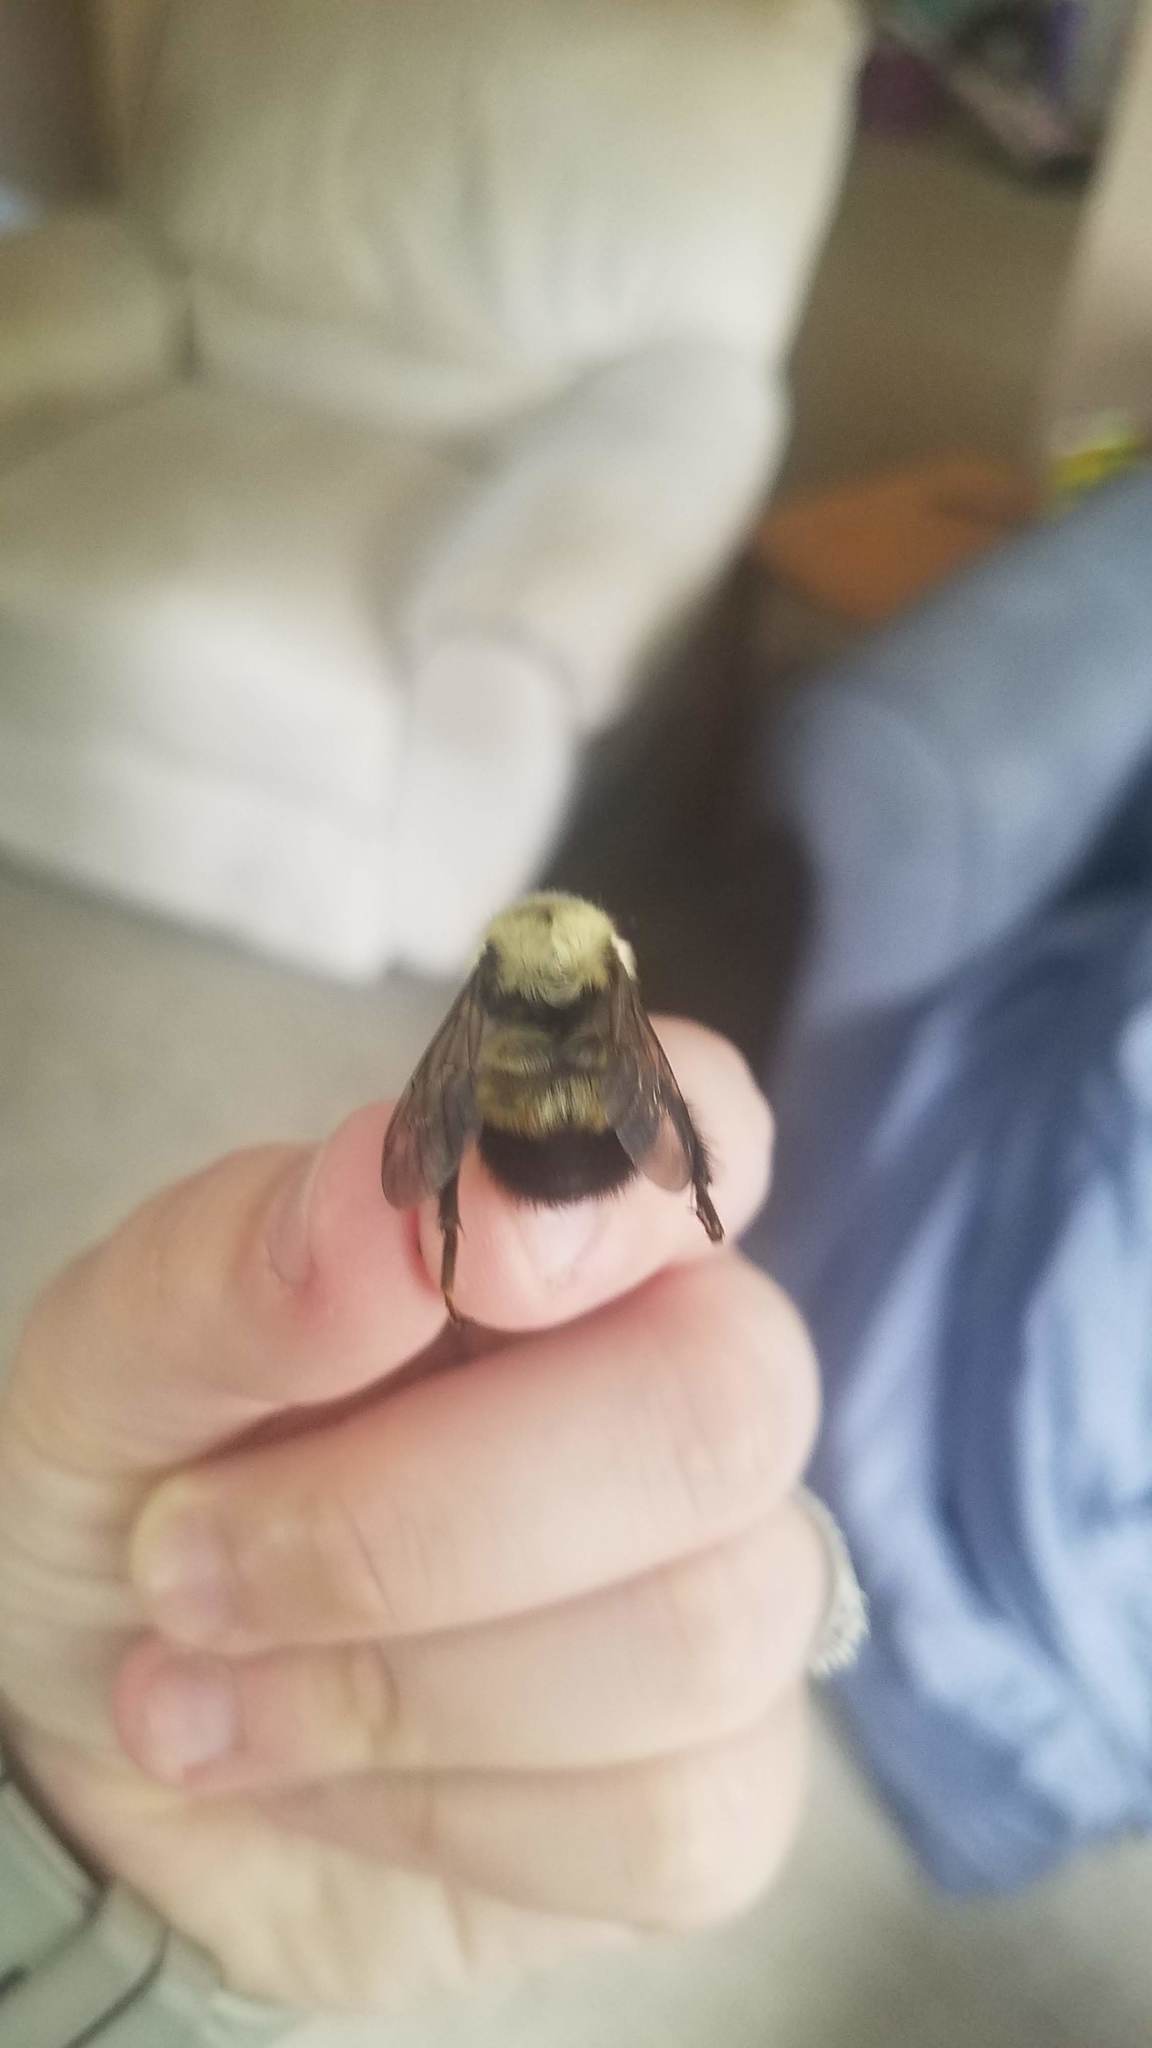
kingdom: Animalia
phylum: Arthropoda
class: Insecta
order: Hymenoptera
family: Apidae
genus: Bombus
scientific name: Bombus perplexus
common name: Confusing bumble bee
